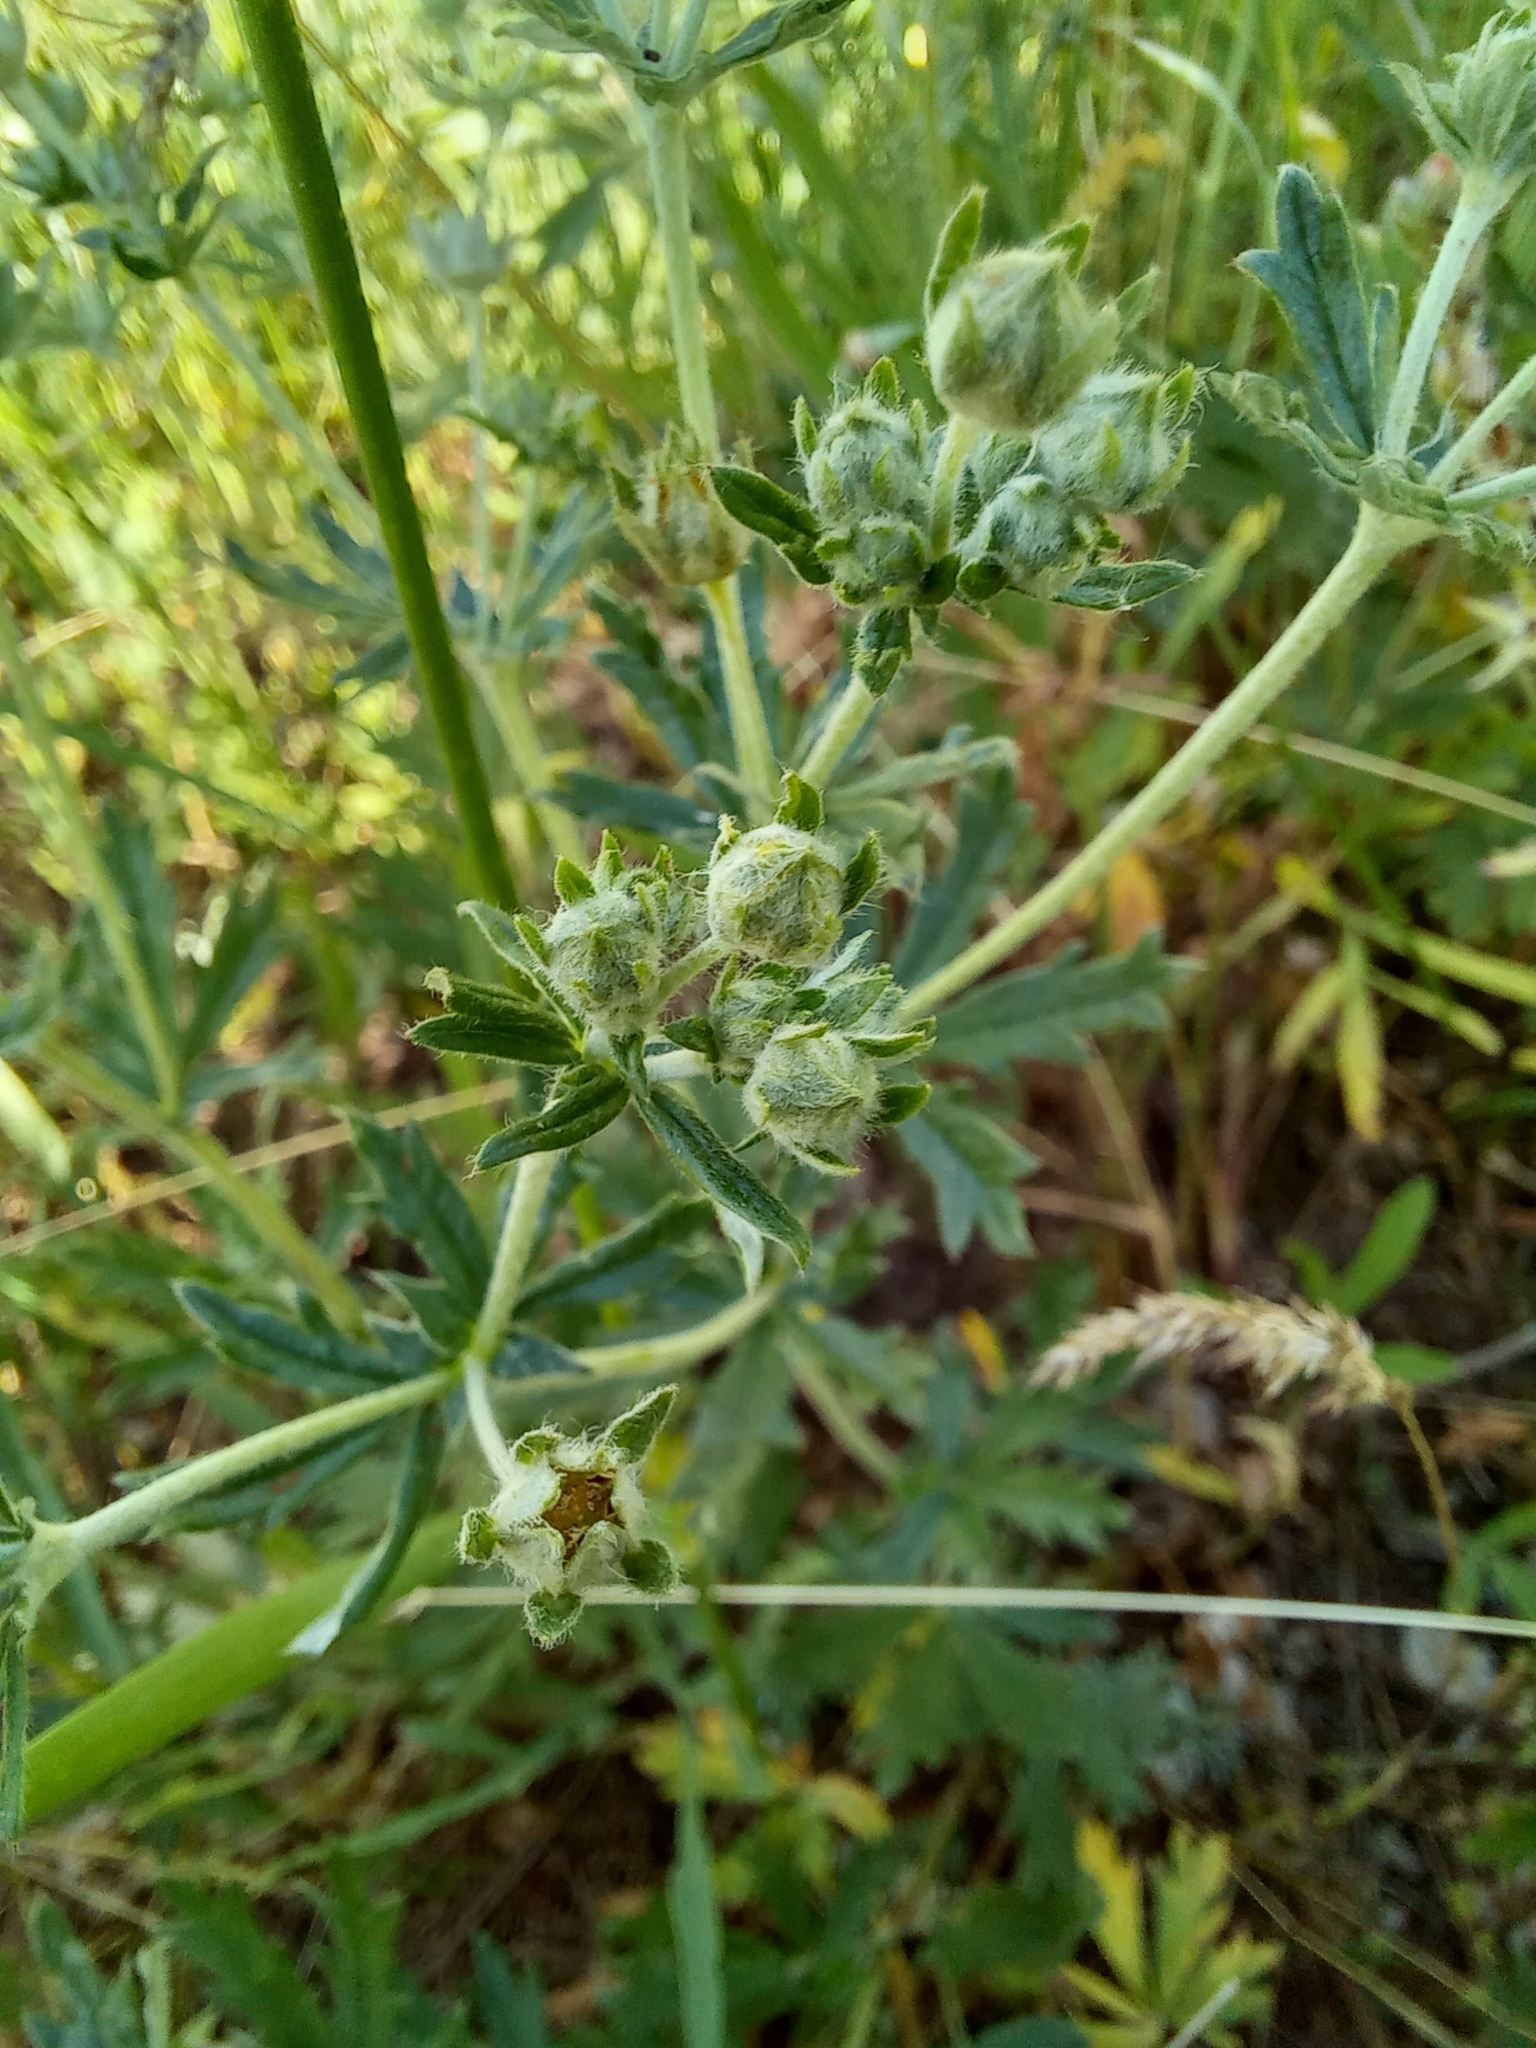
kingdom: Plantae
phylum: Tracheophyta
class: Magnoliopsida
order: Rosales
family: Rosaceae
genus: Potentilla
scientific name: Potentilla argentea
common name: Hoary cinquefoil
